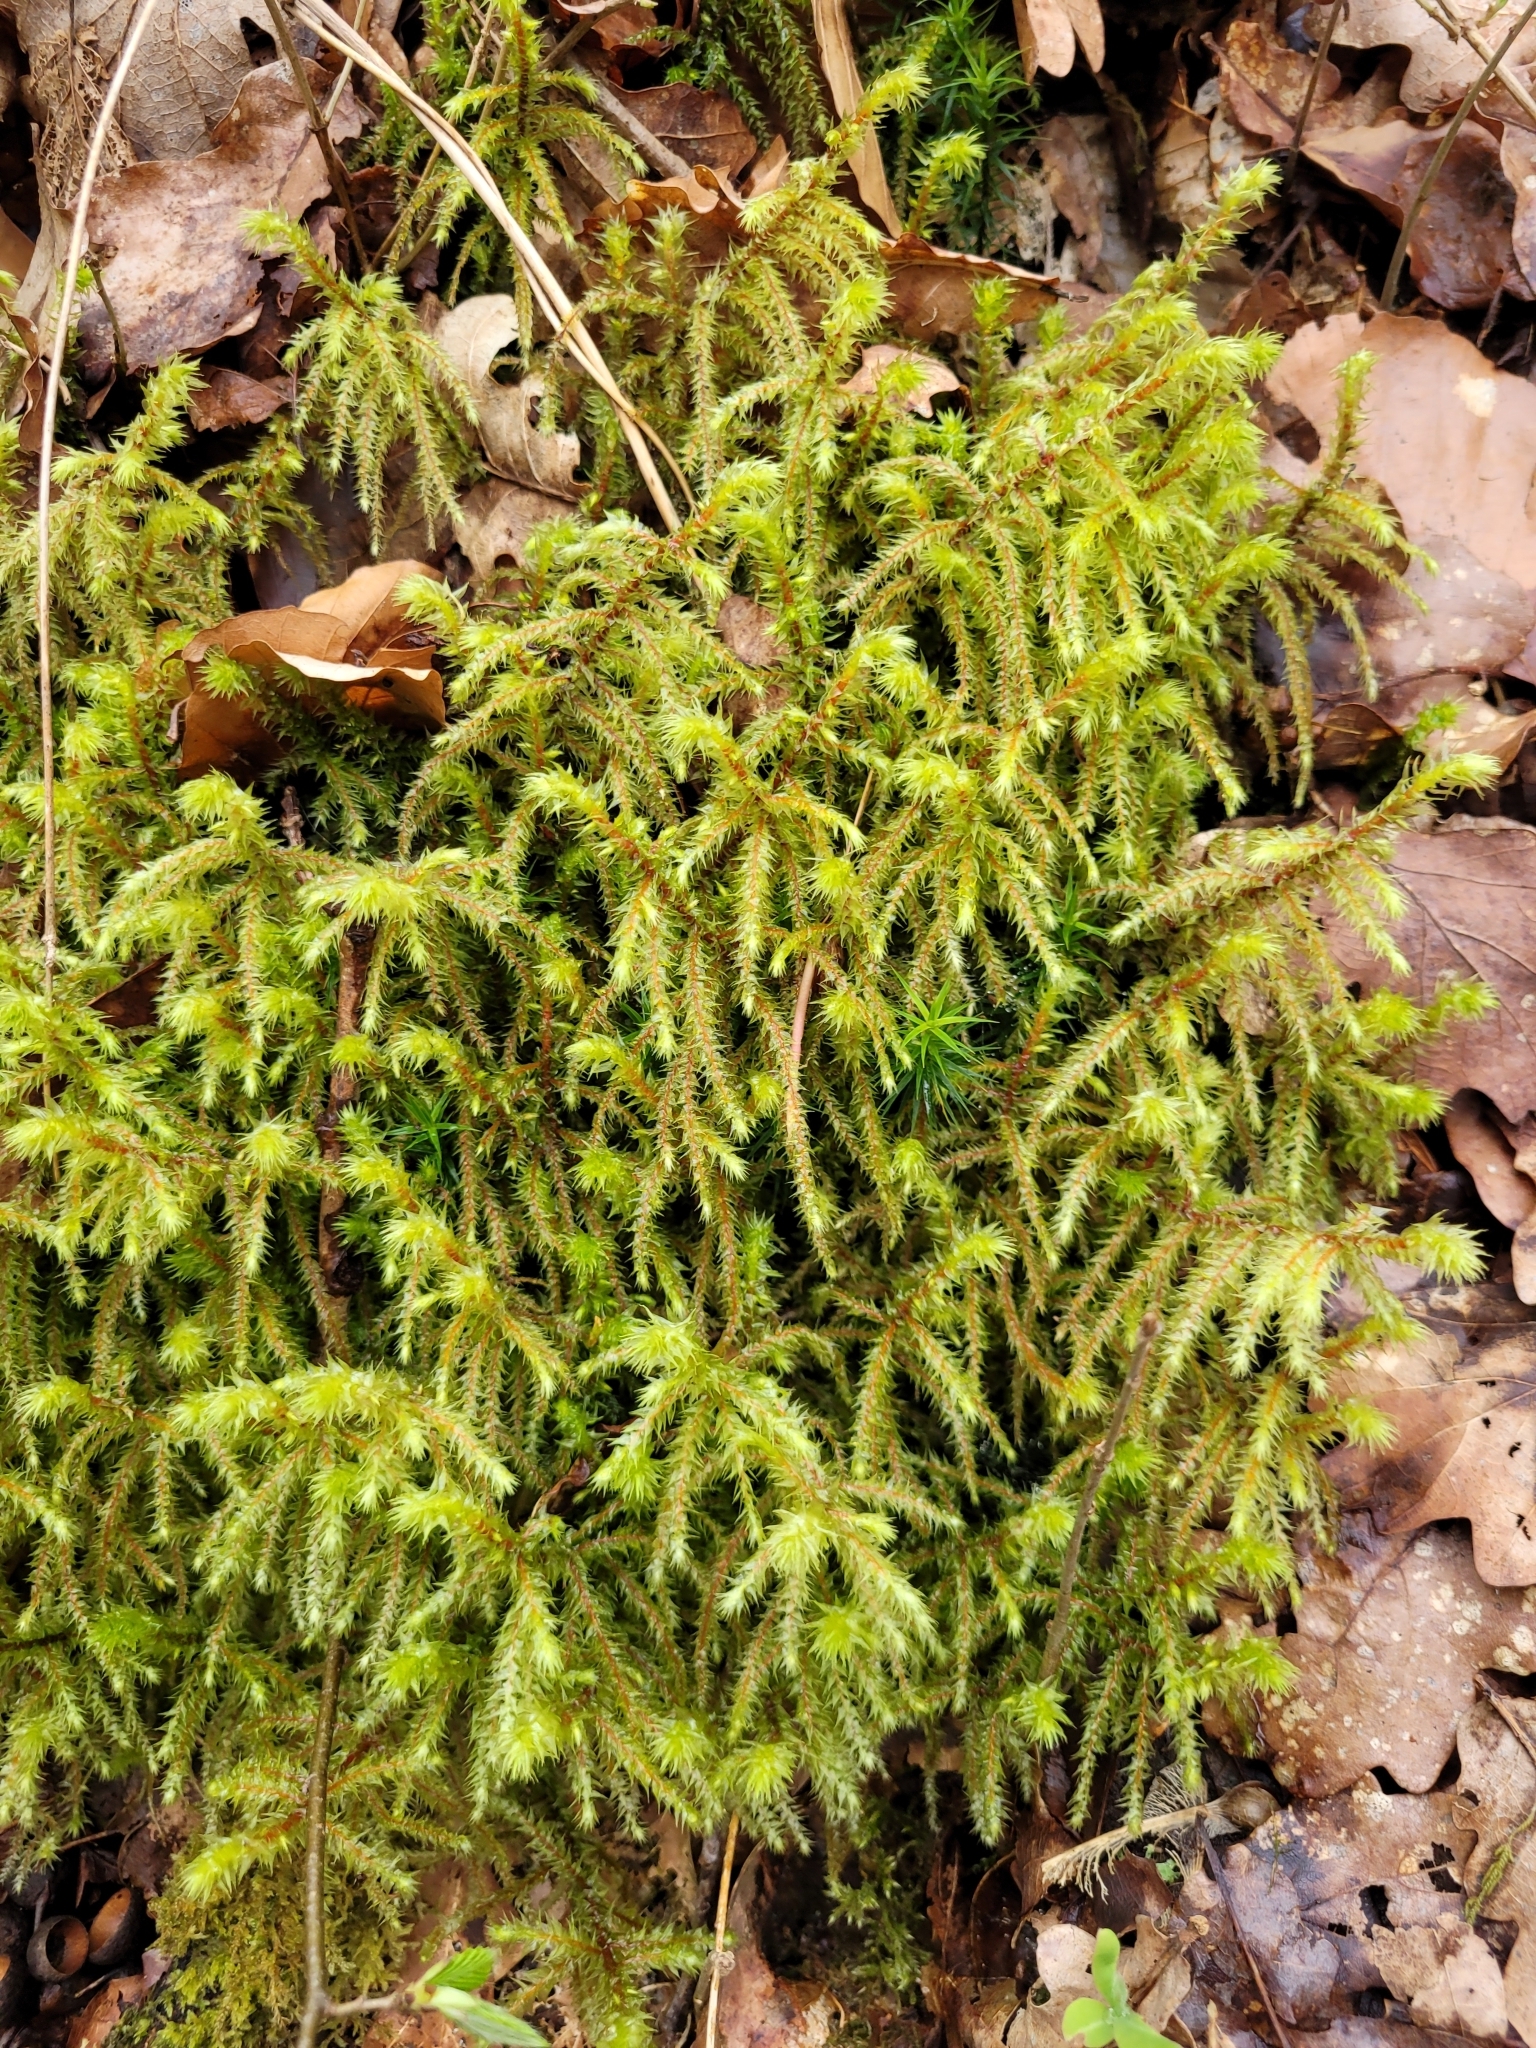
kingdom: Plantae
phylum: Bryophyta
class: Bryopsida
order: Hypnales
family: Hylocomiaceae
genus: Hylocomiadelphus
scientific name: Hylocomiadelphus triquetrus
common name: Rough goose neck moss
